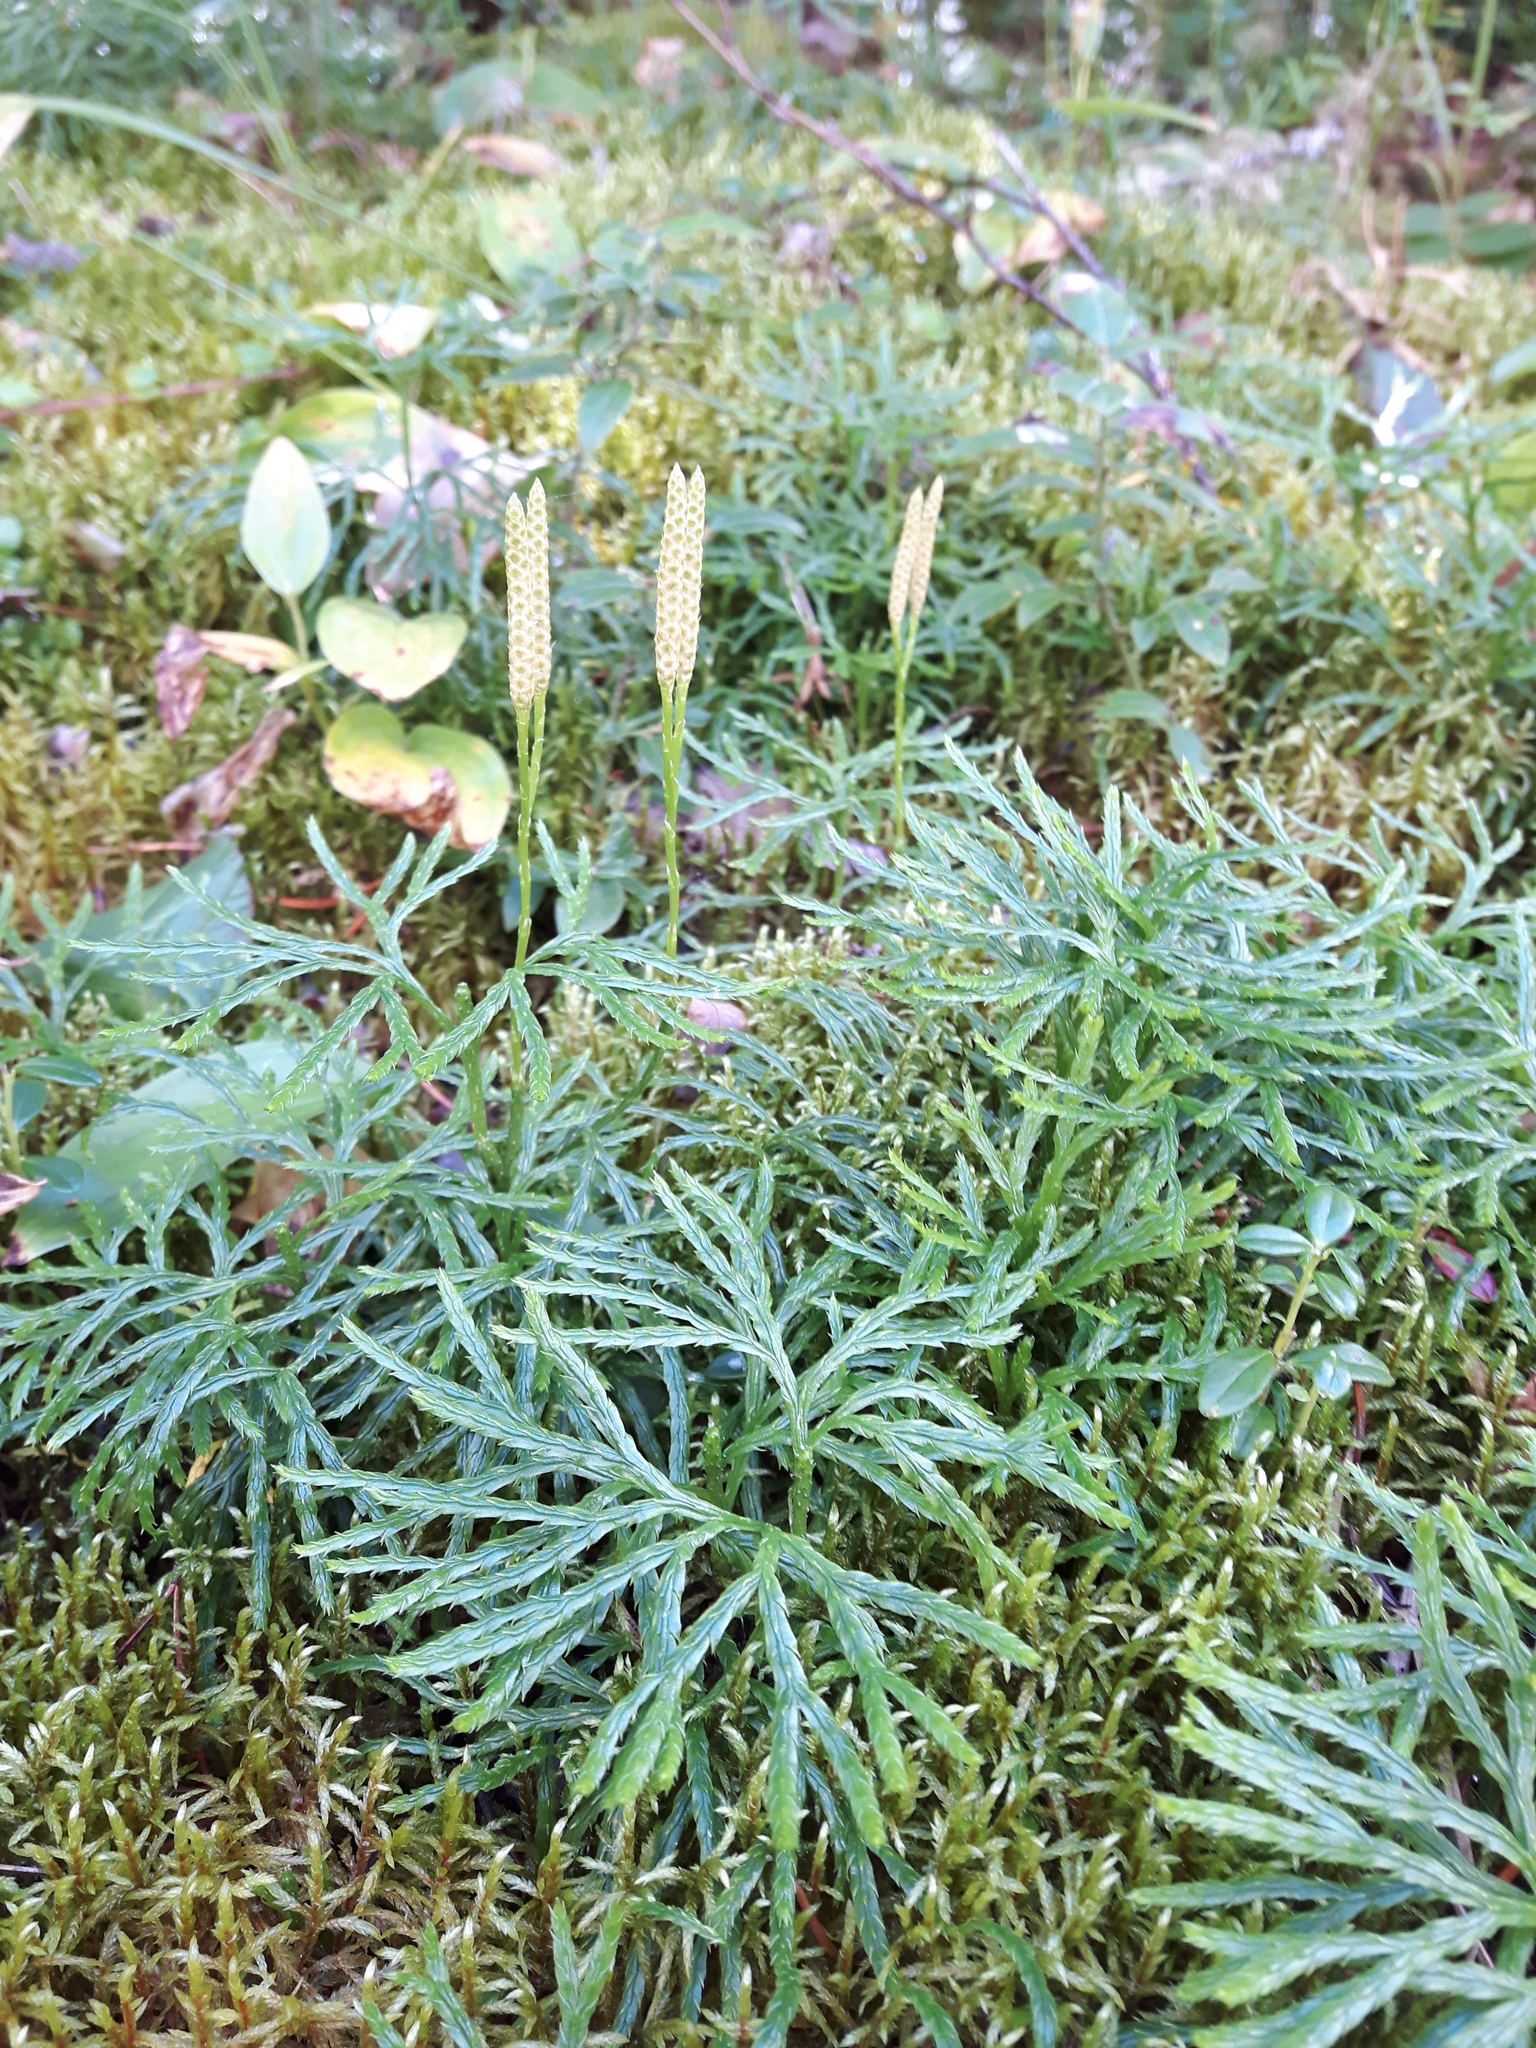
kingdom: Plantae
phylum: Tracheophyta
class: Lycopodiopsida
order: Lycopodiales
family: Lycopodiaceae
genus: Diphasiastrum
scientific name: Diphasiastrum complanatum
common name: Northern running-pine
